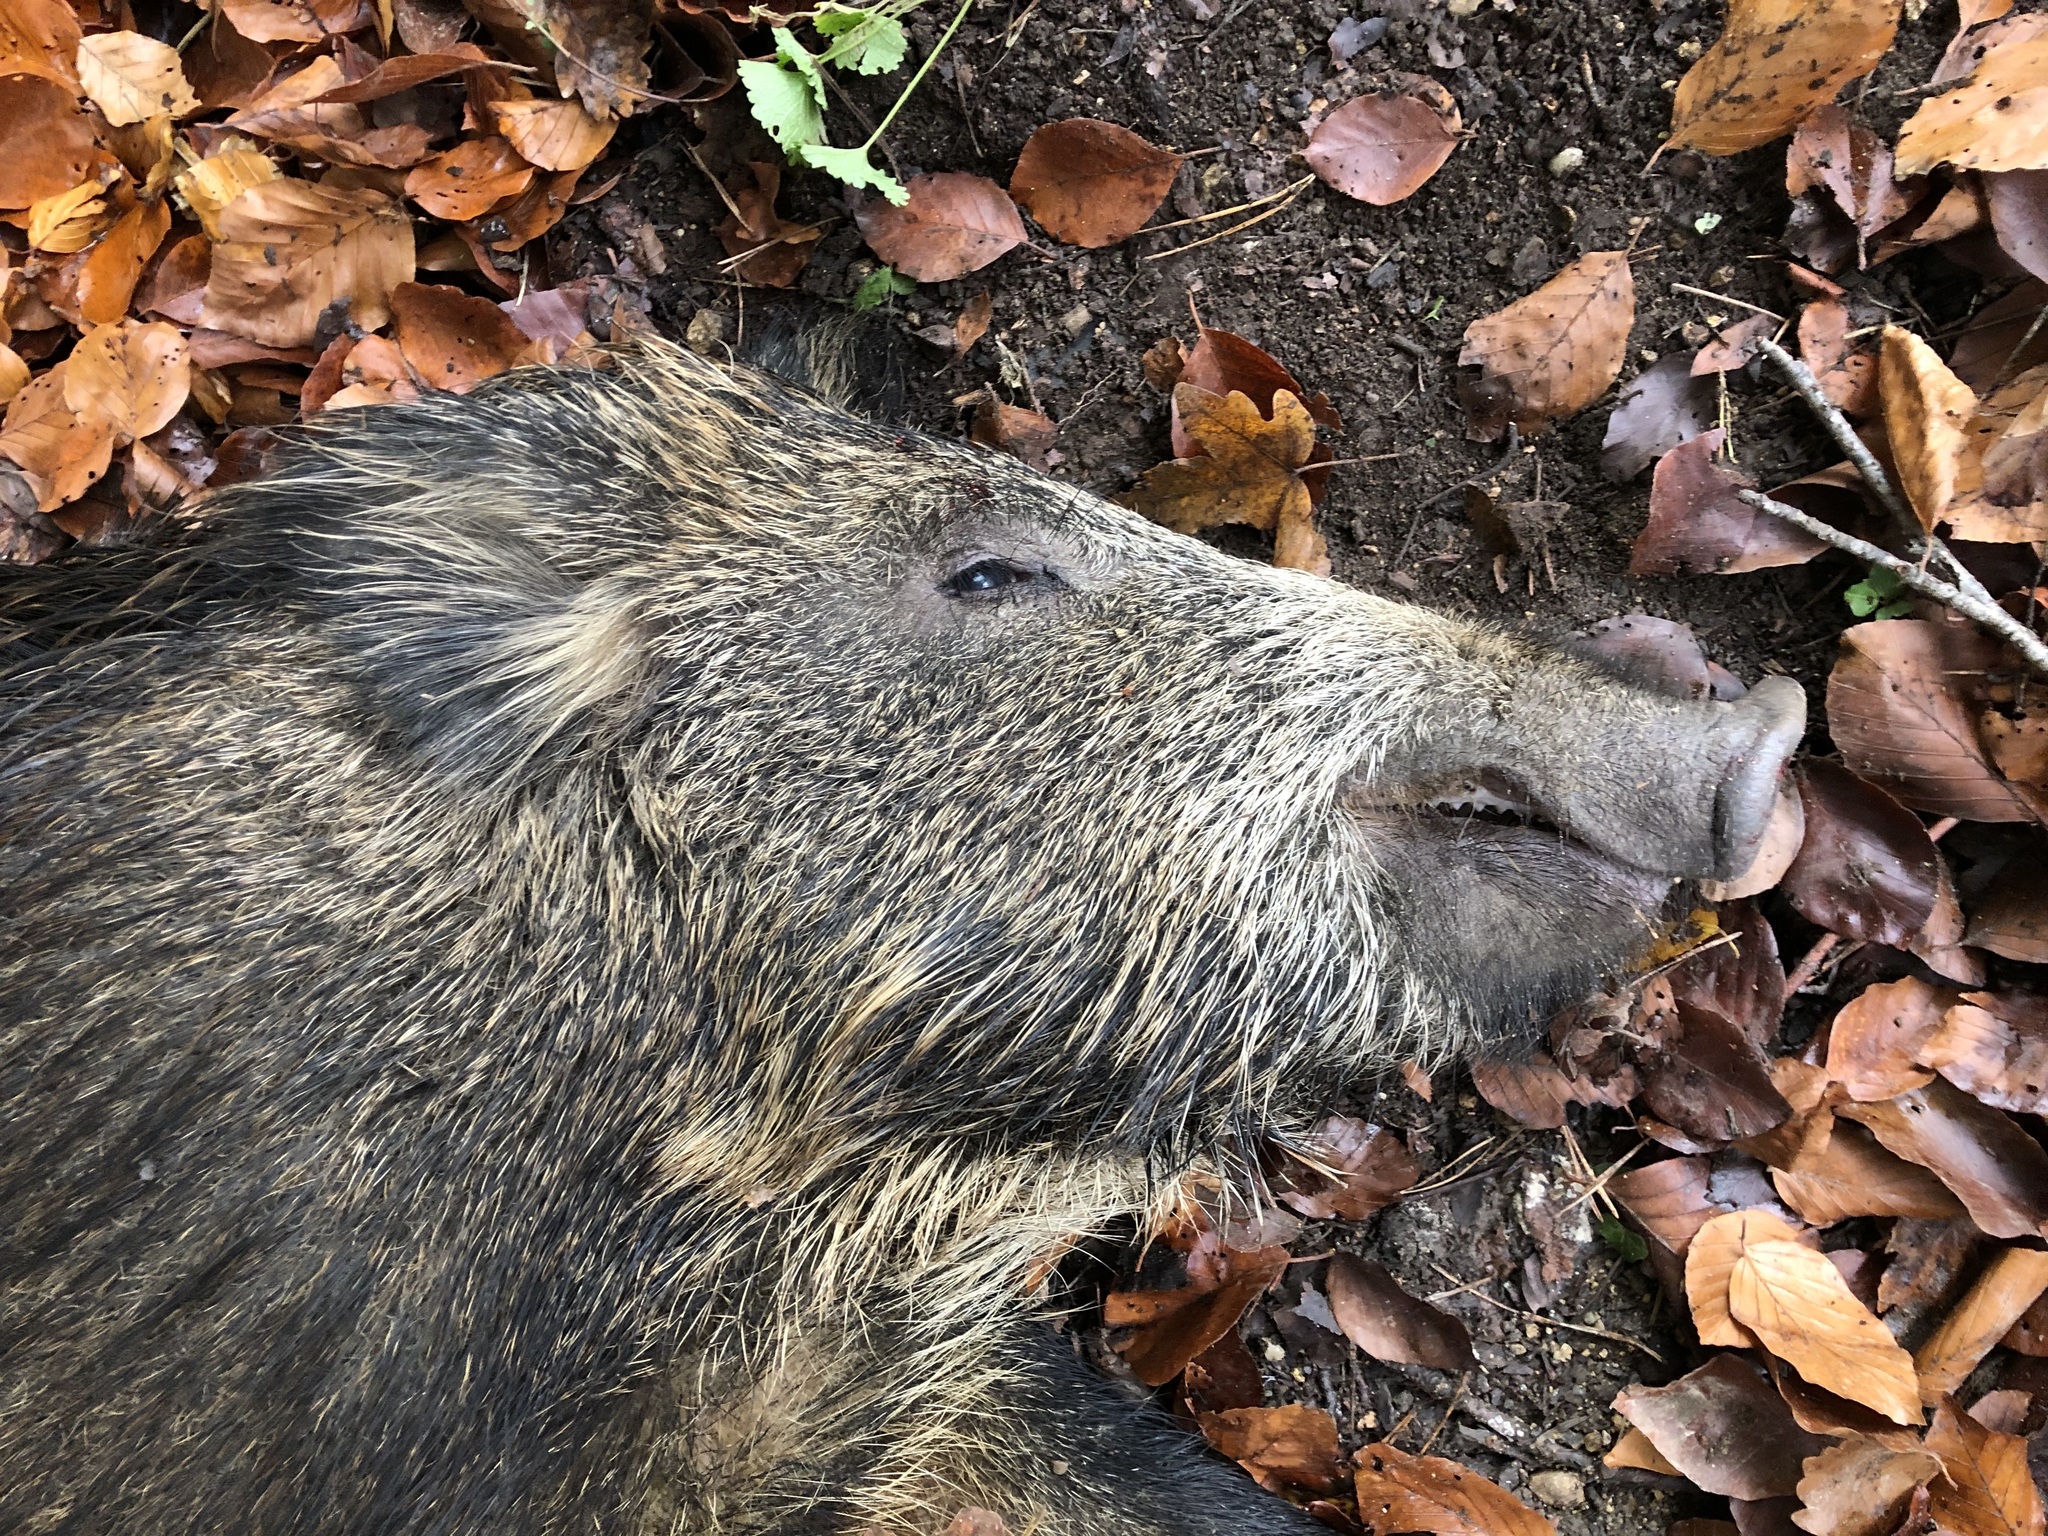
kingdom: Animalia
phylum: Chordata
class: Mammalia
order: Artiodactyla
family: Suidae
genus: Sus
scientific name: Sus scrofa
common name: Wild boar
